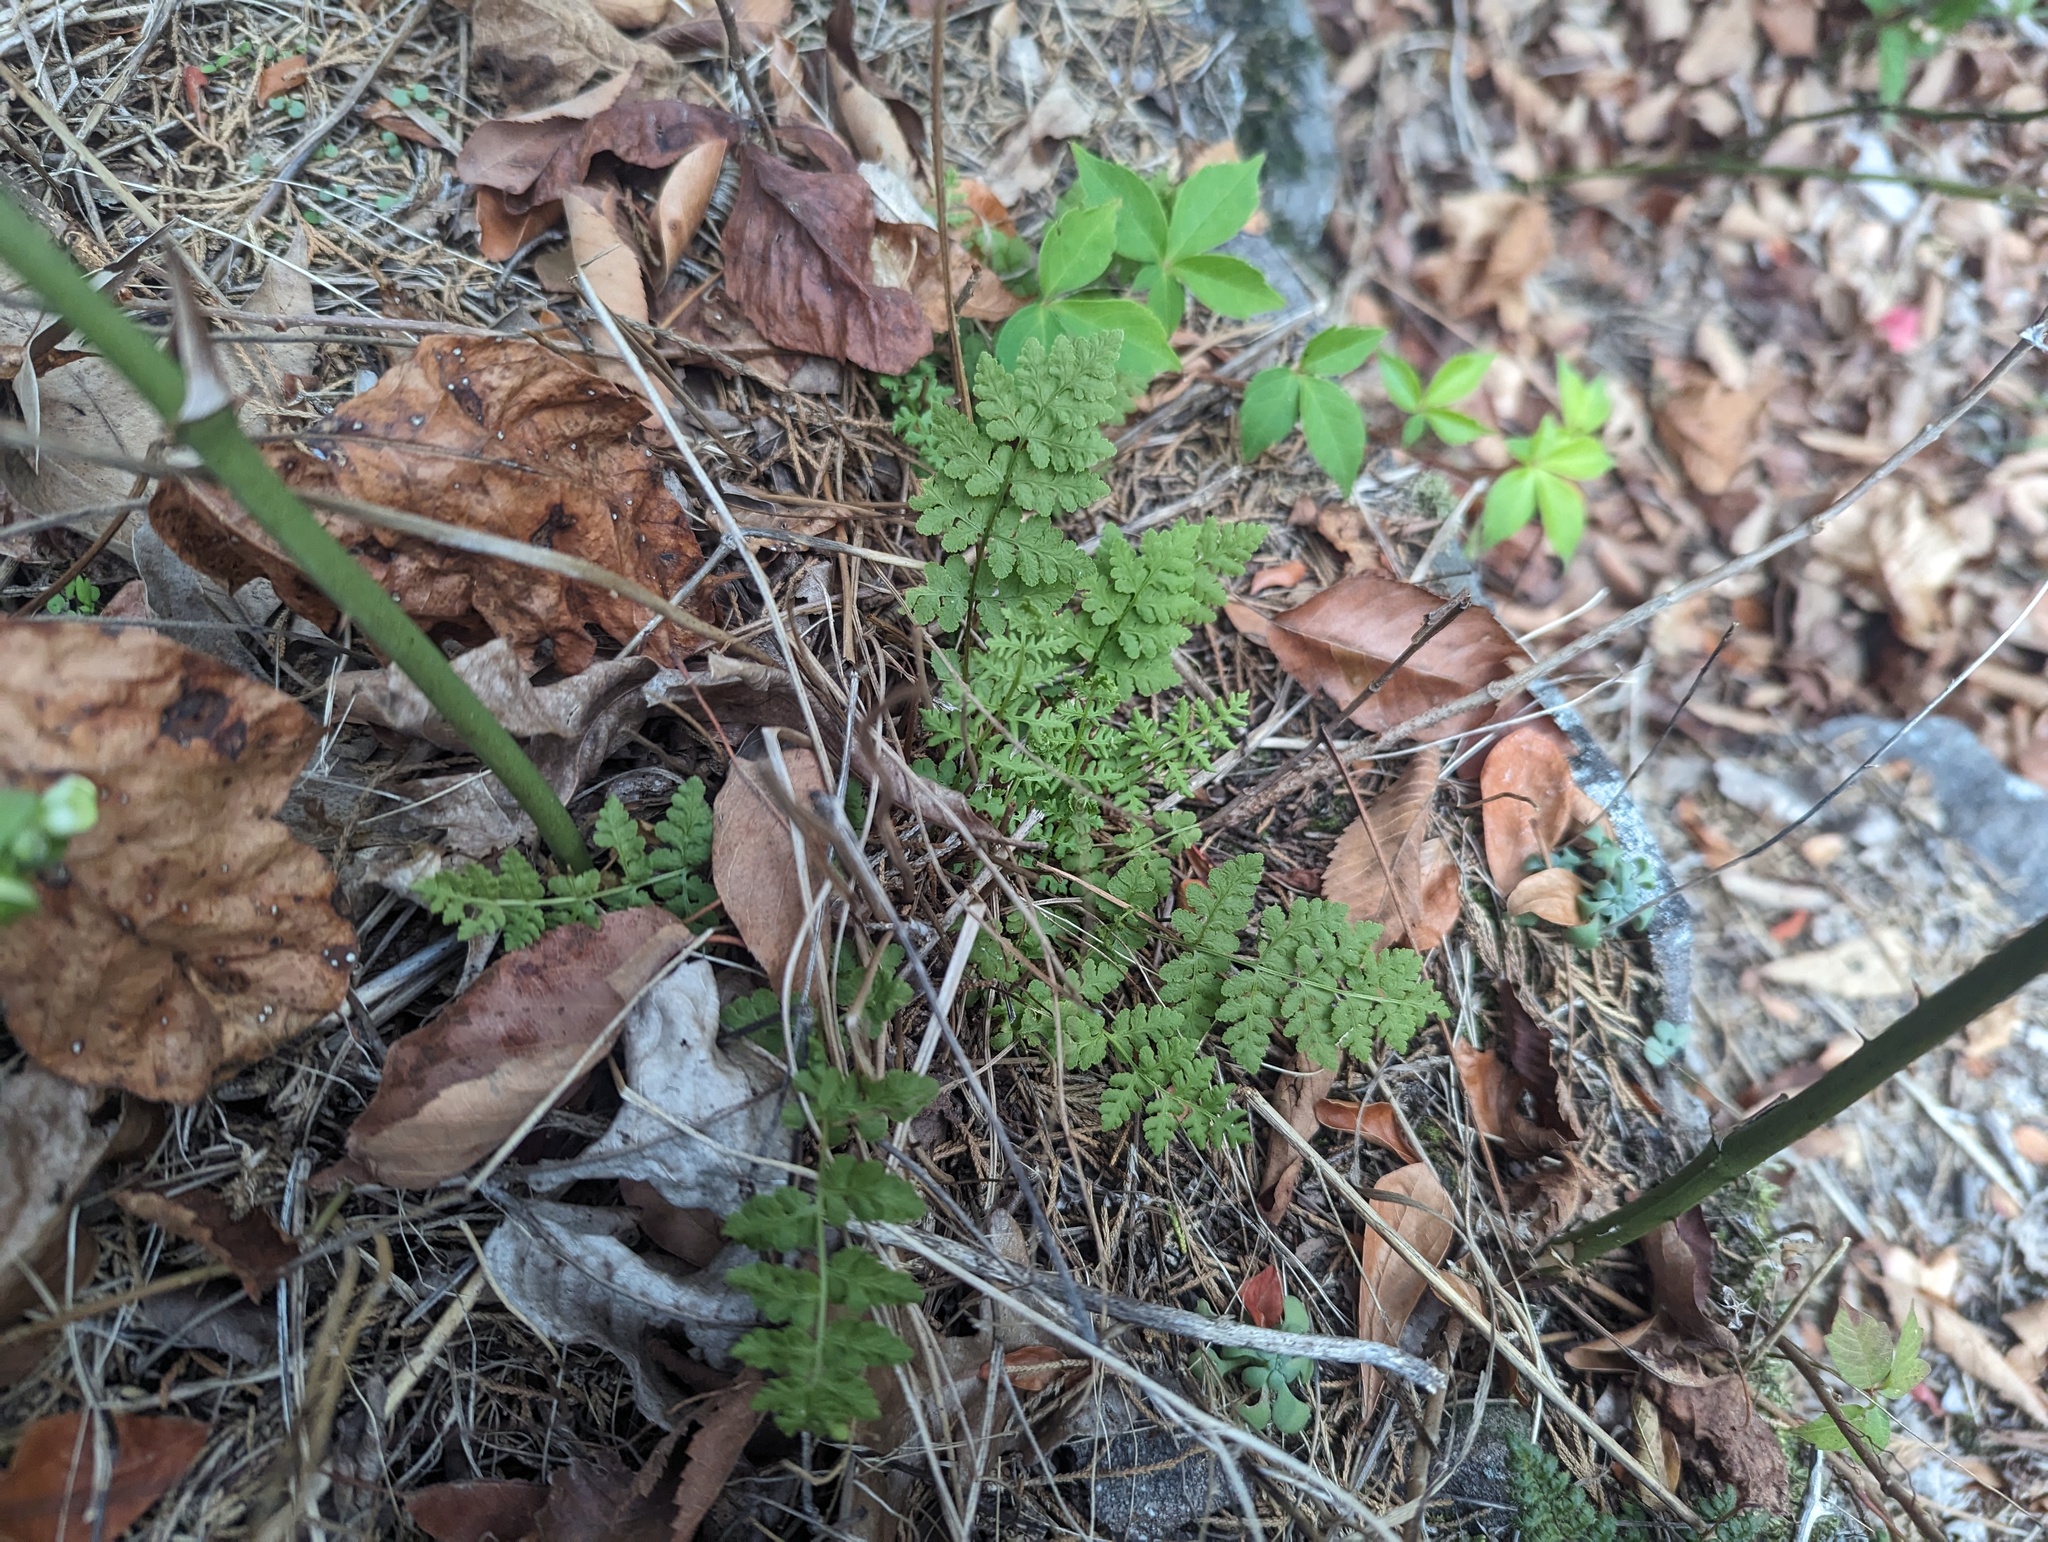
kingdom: Plantae
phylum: Tracheophyta
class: Polypodiopsida
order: Polypodiales
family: Woodsiaceae
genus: Physematium
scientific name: Physematium obtusum
